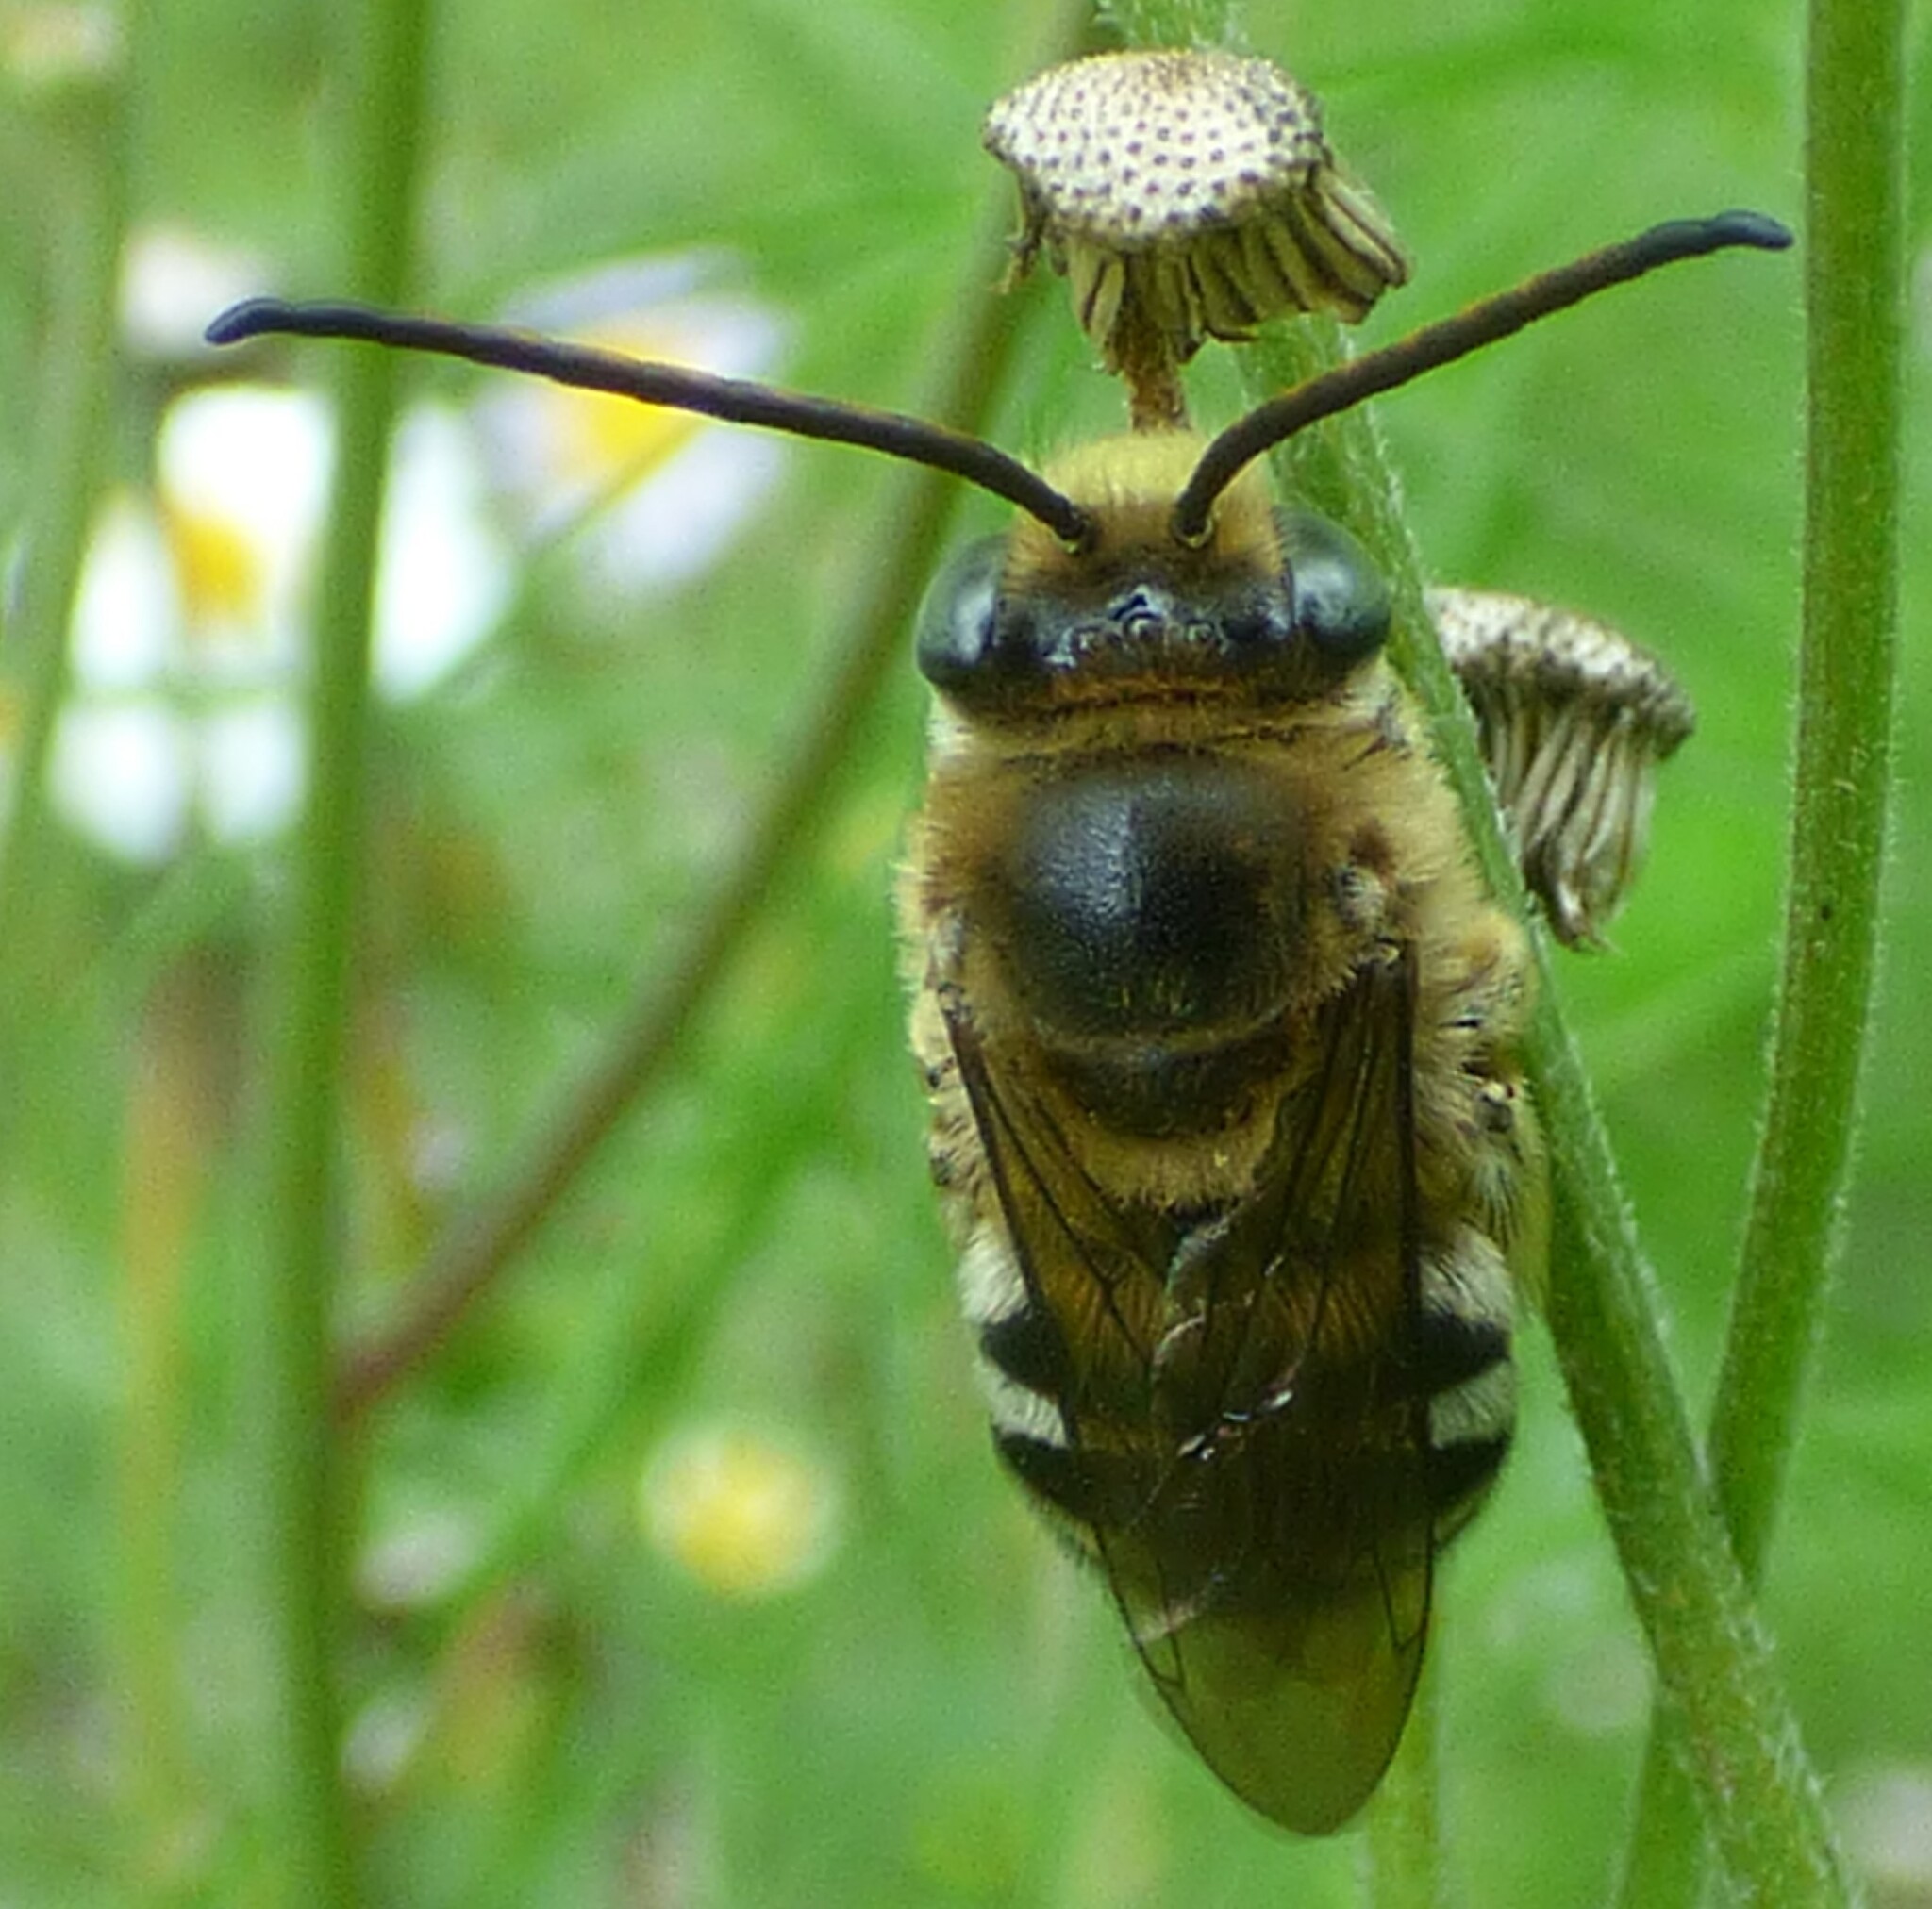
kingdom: Animalia
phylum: Arthropoda
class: Insecta
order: Hymenoptera
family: Apidae
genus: Florilegus
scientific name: Florilegus condignus
